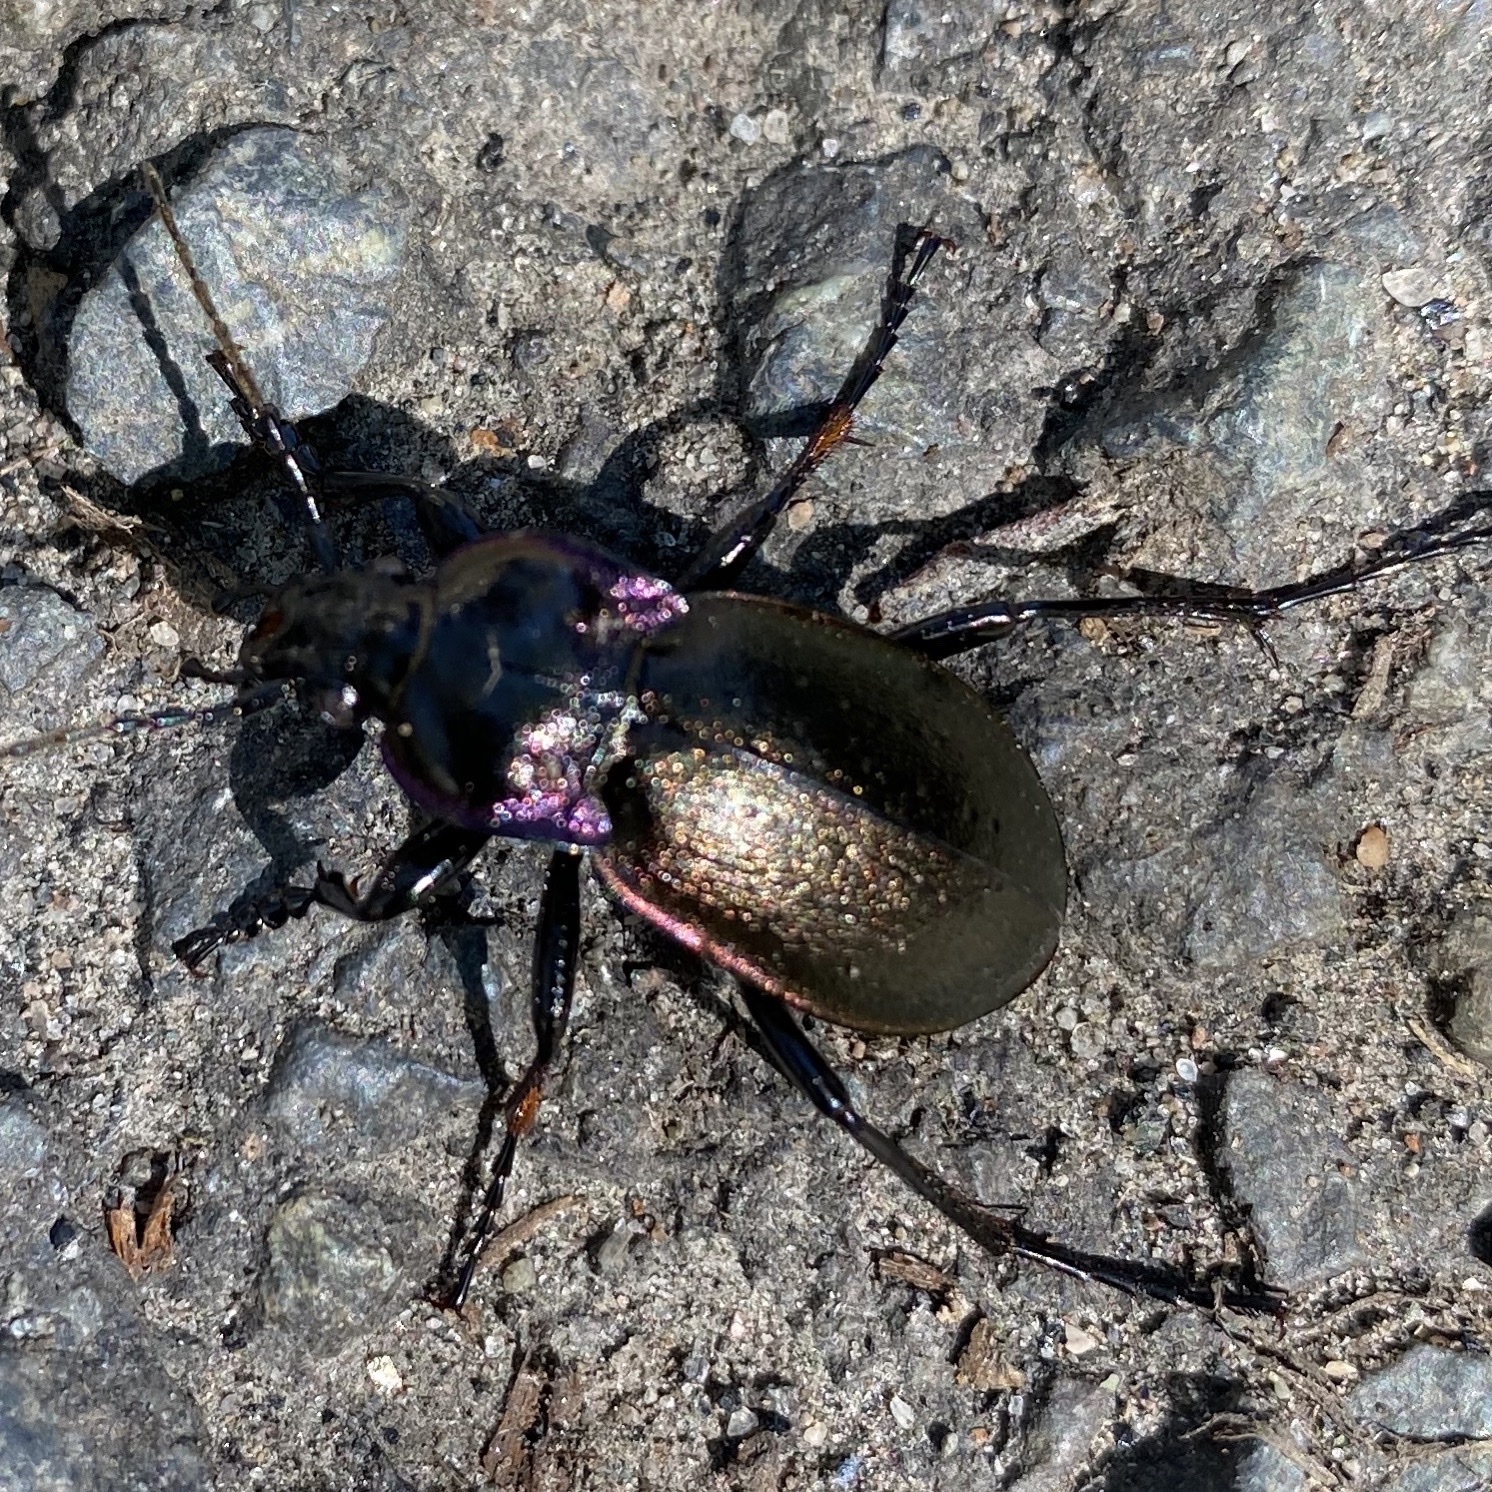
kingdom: Animalia
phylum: Arthropoda
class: Insecta
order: Coleoptera
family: Carabidae
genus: Carabus
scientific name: Carabus nemoralis
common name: European ground beetle
